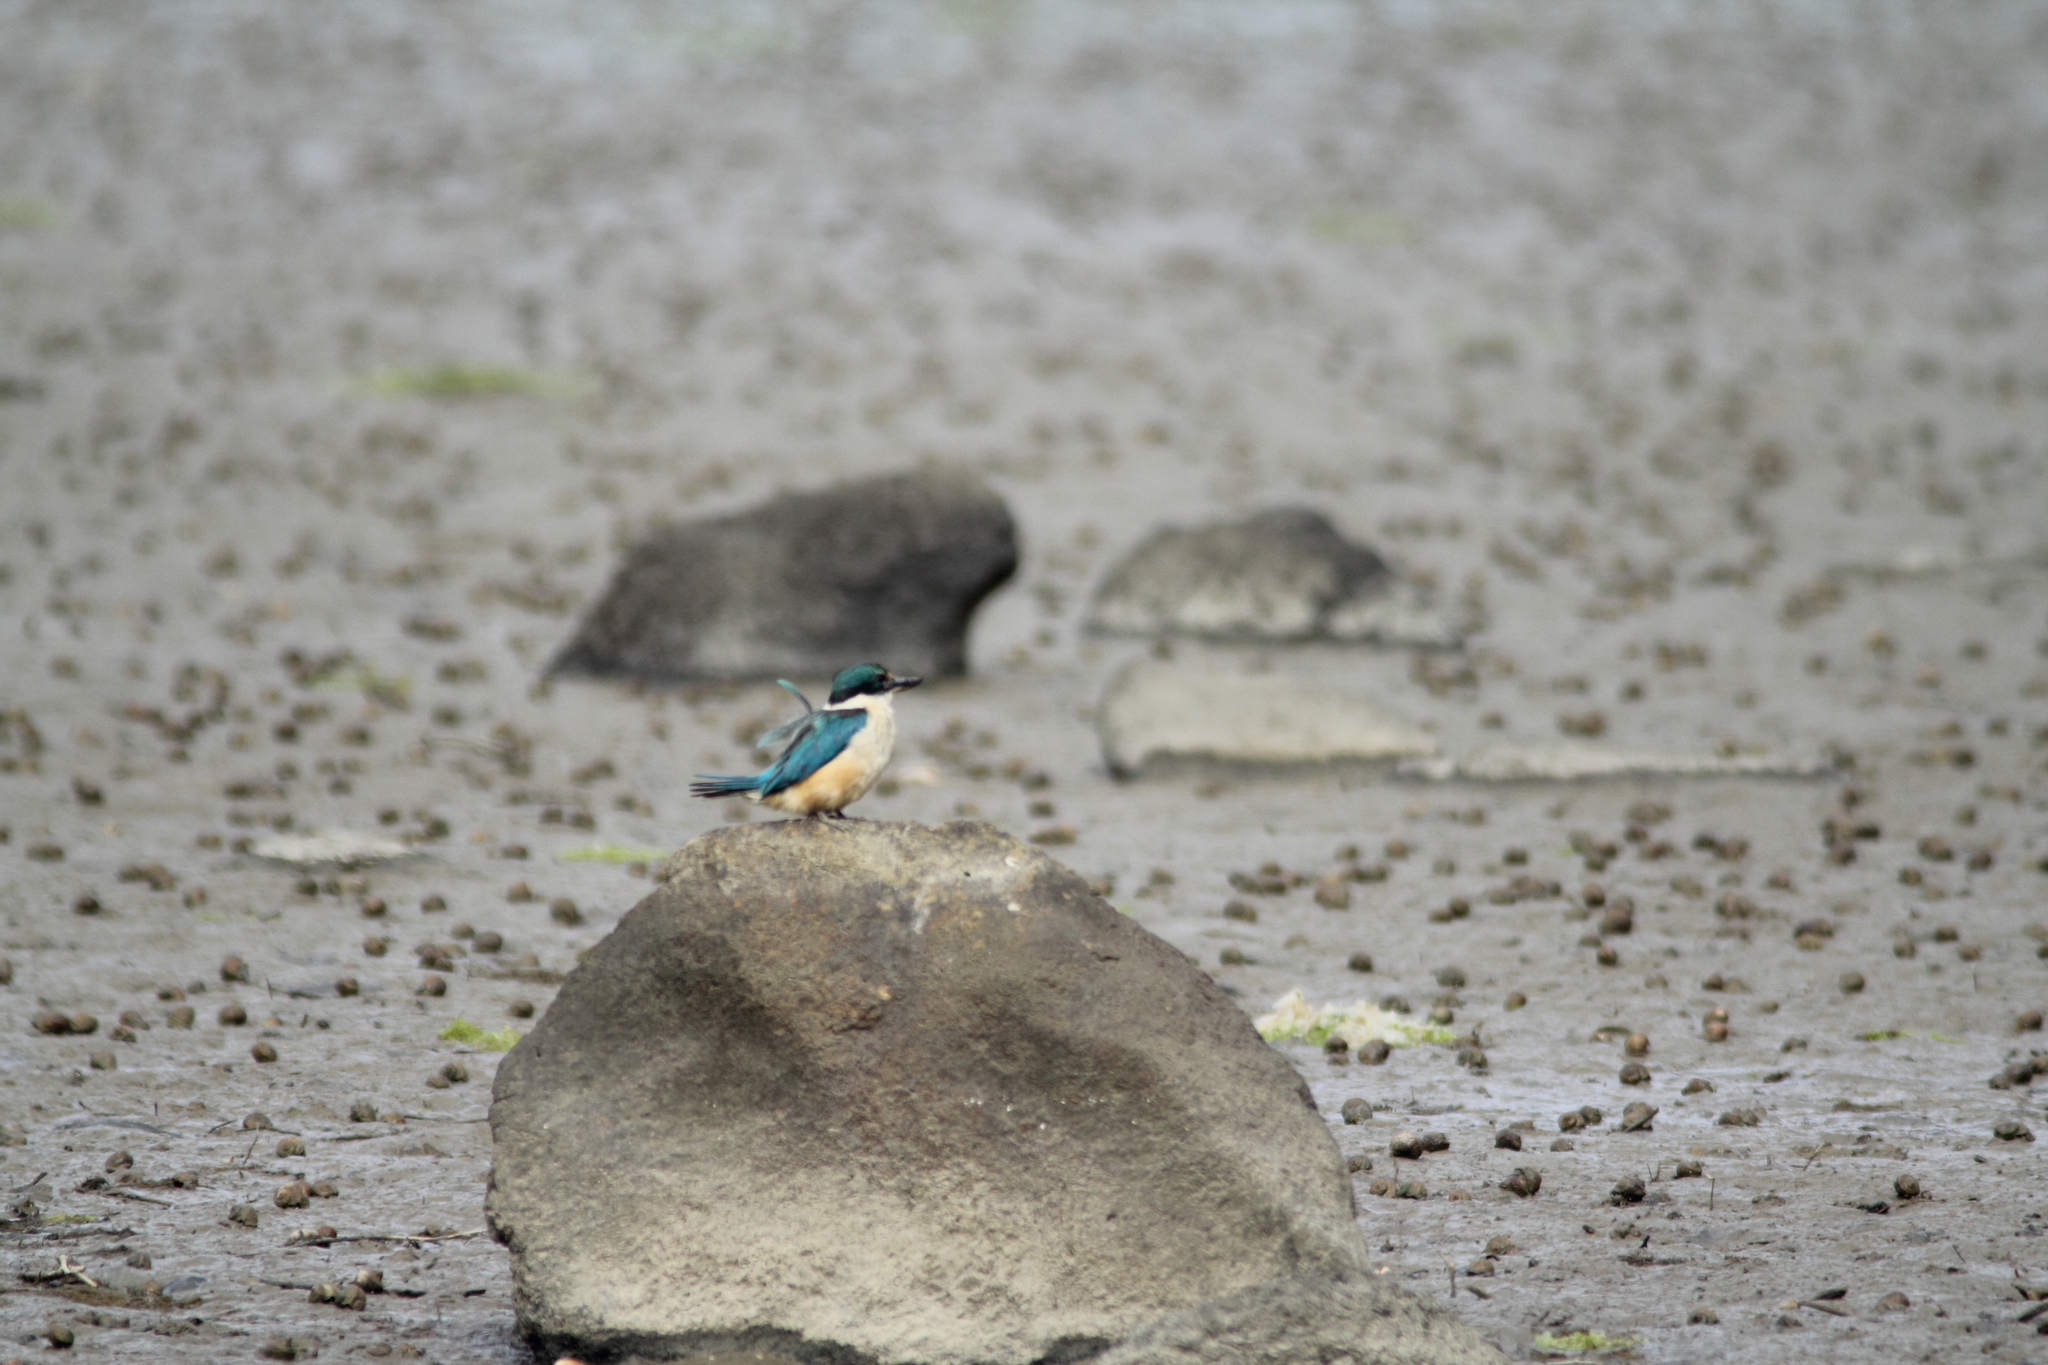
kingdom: Animalia
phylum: Chordata
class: Aves
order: Coraciiformes
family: Alcedinidae
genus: Todiramphus
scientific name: Todiramphus sanctus
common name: Sacred kingfisher
